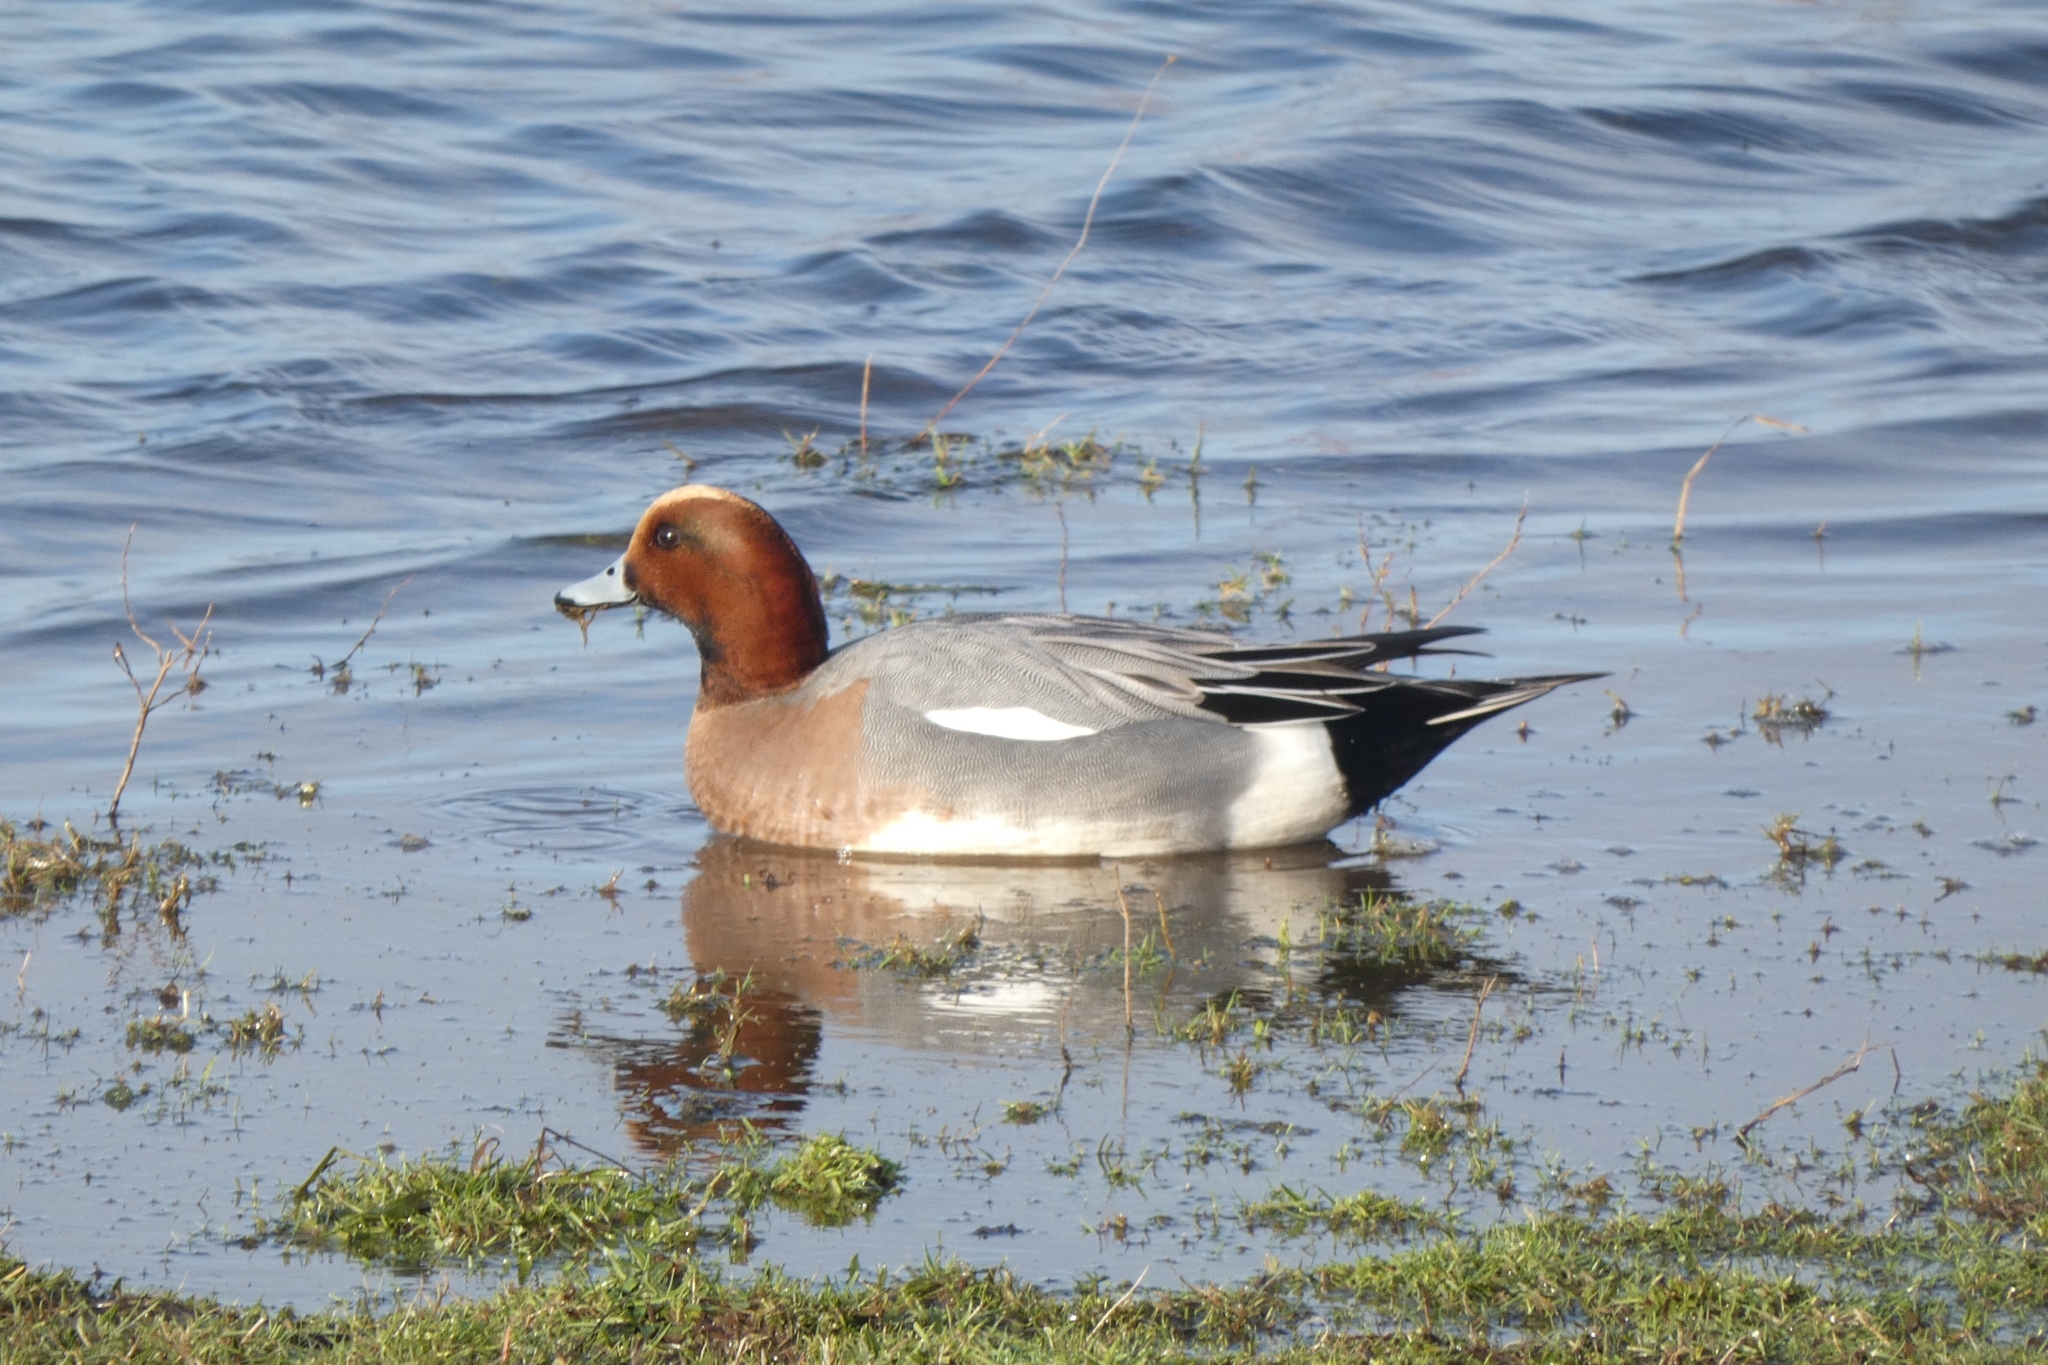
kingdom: Animalia
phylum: Chordata
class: Aves
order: Anseriformes
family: Anatidae
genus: Mareca
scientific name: Mareca penelope
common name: Eurasian wigeon
